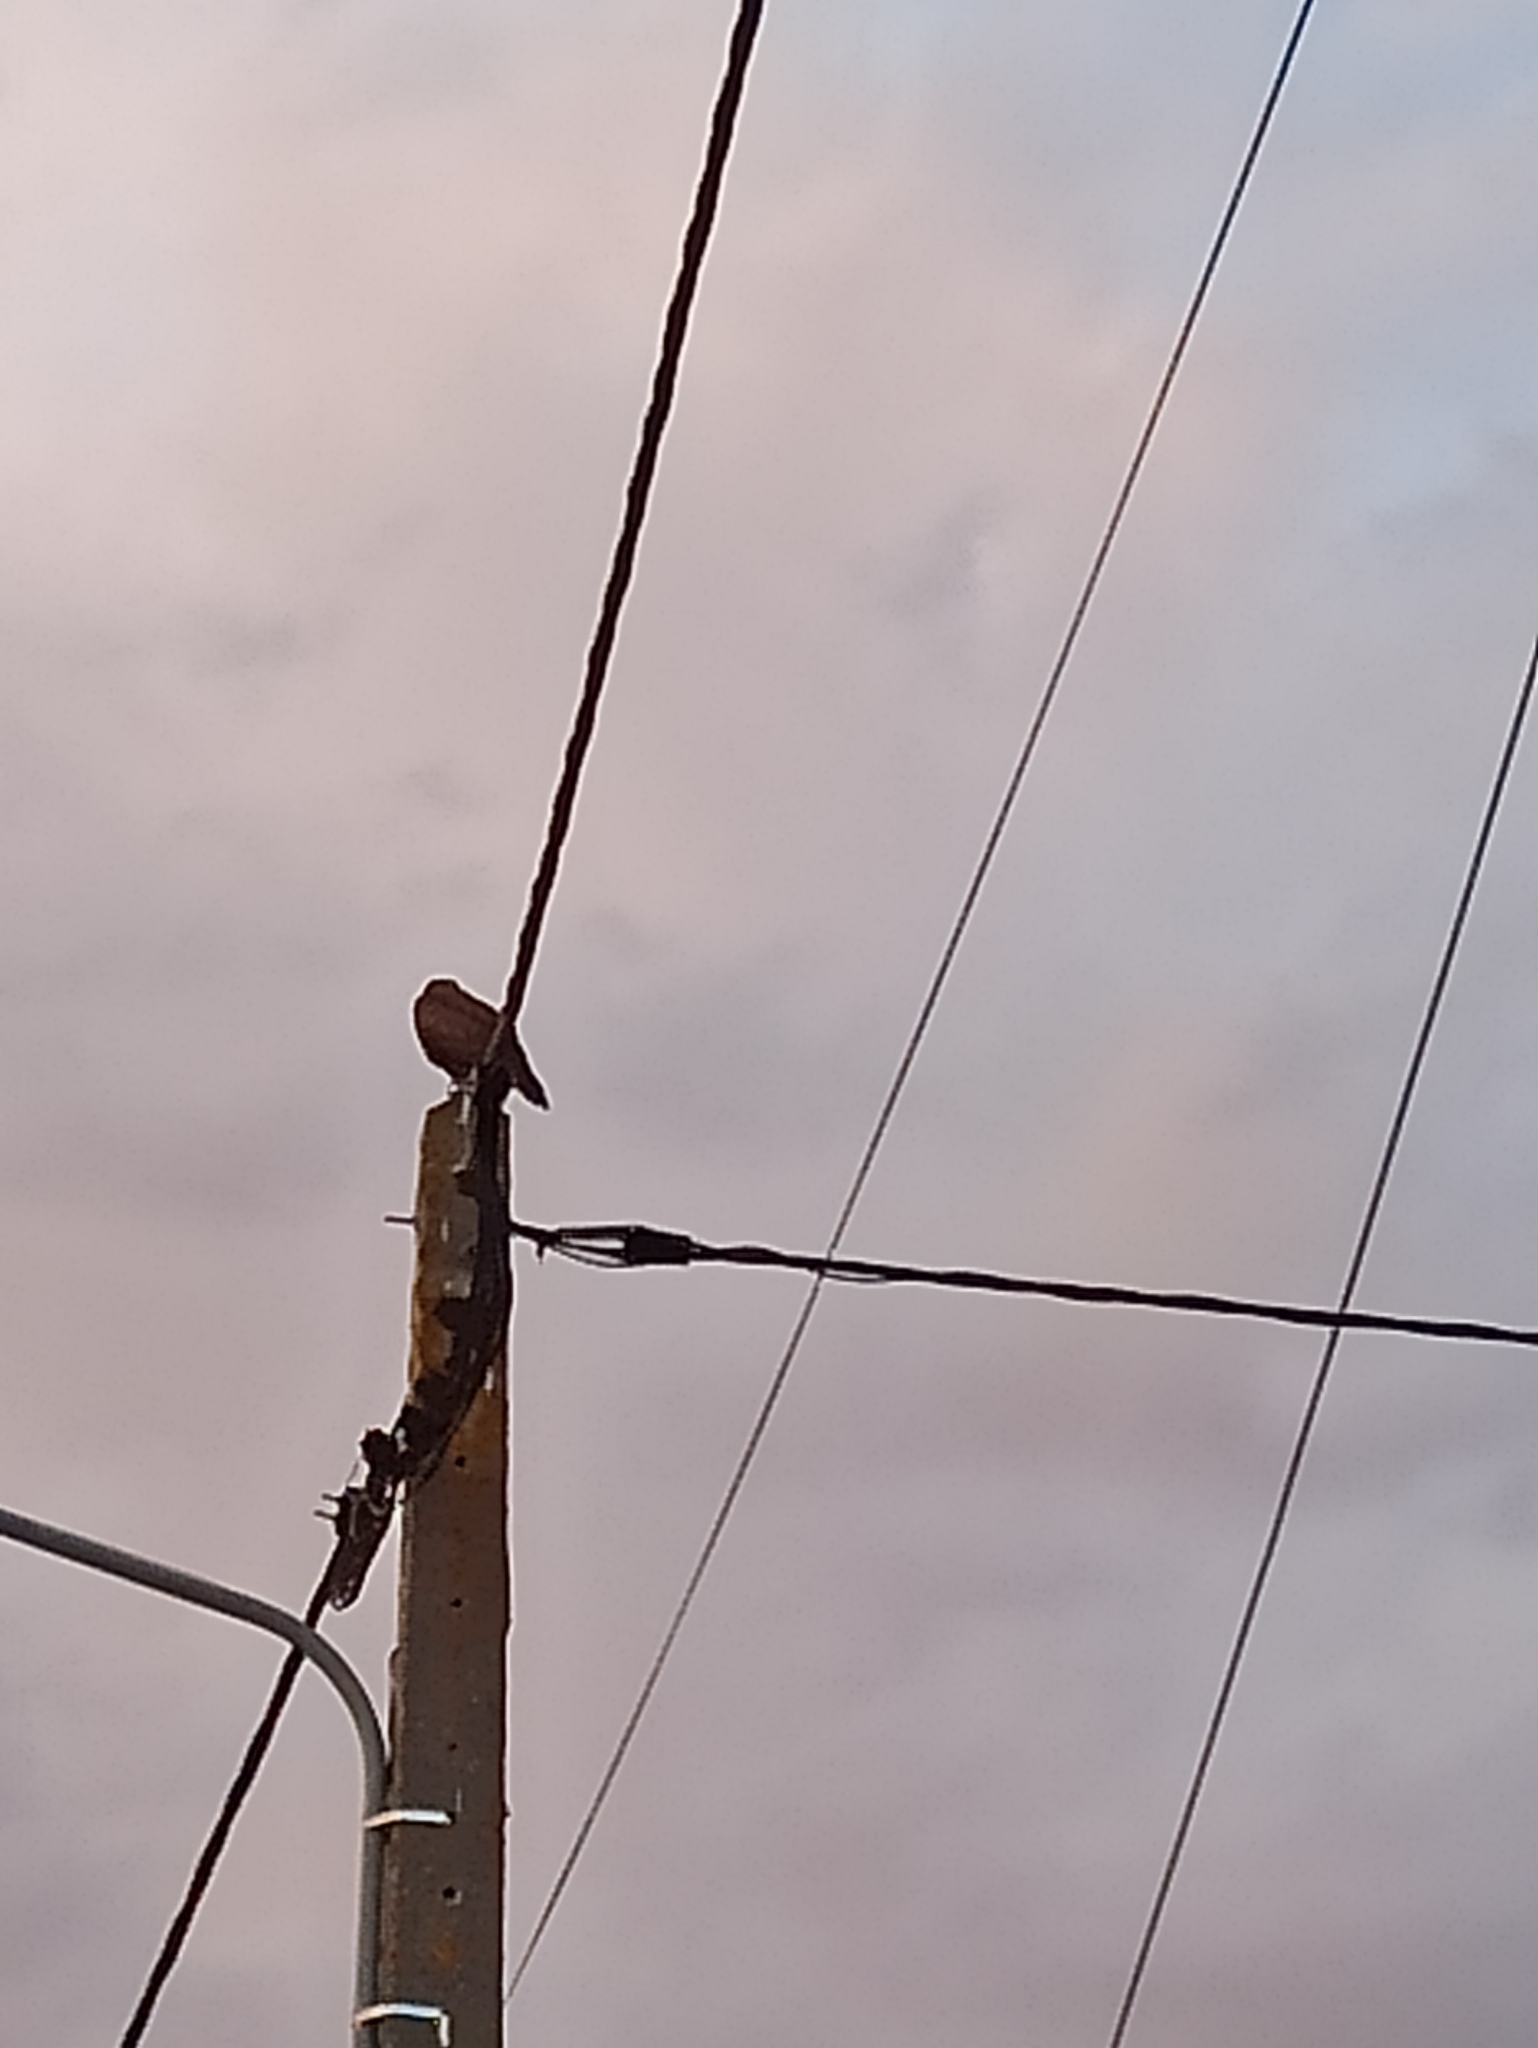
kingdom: Animalia
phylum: Chordata
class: Aves
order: Accipitriformes
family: Accipitridae
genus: Buteo
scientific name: Buteo buteo
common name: Common buzzard
